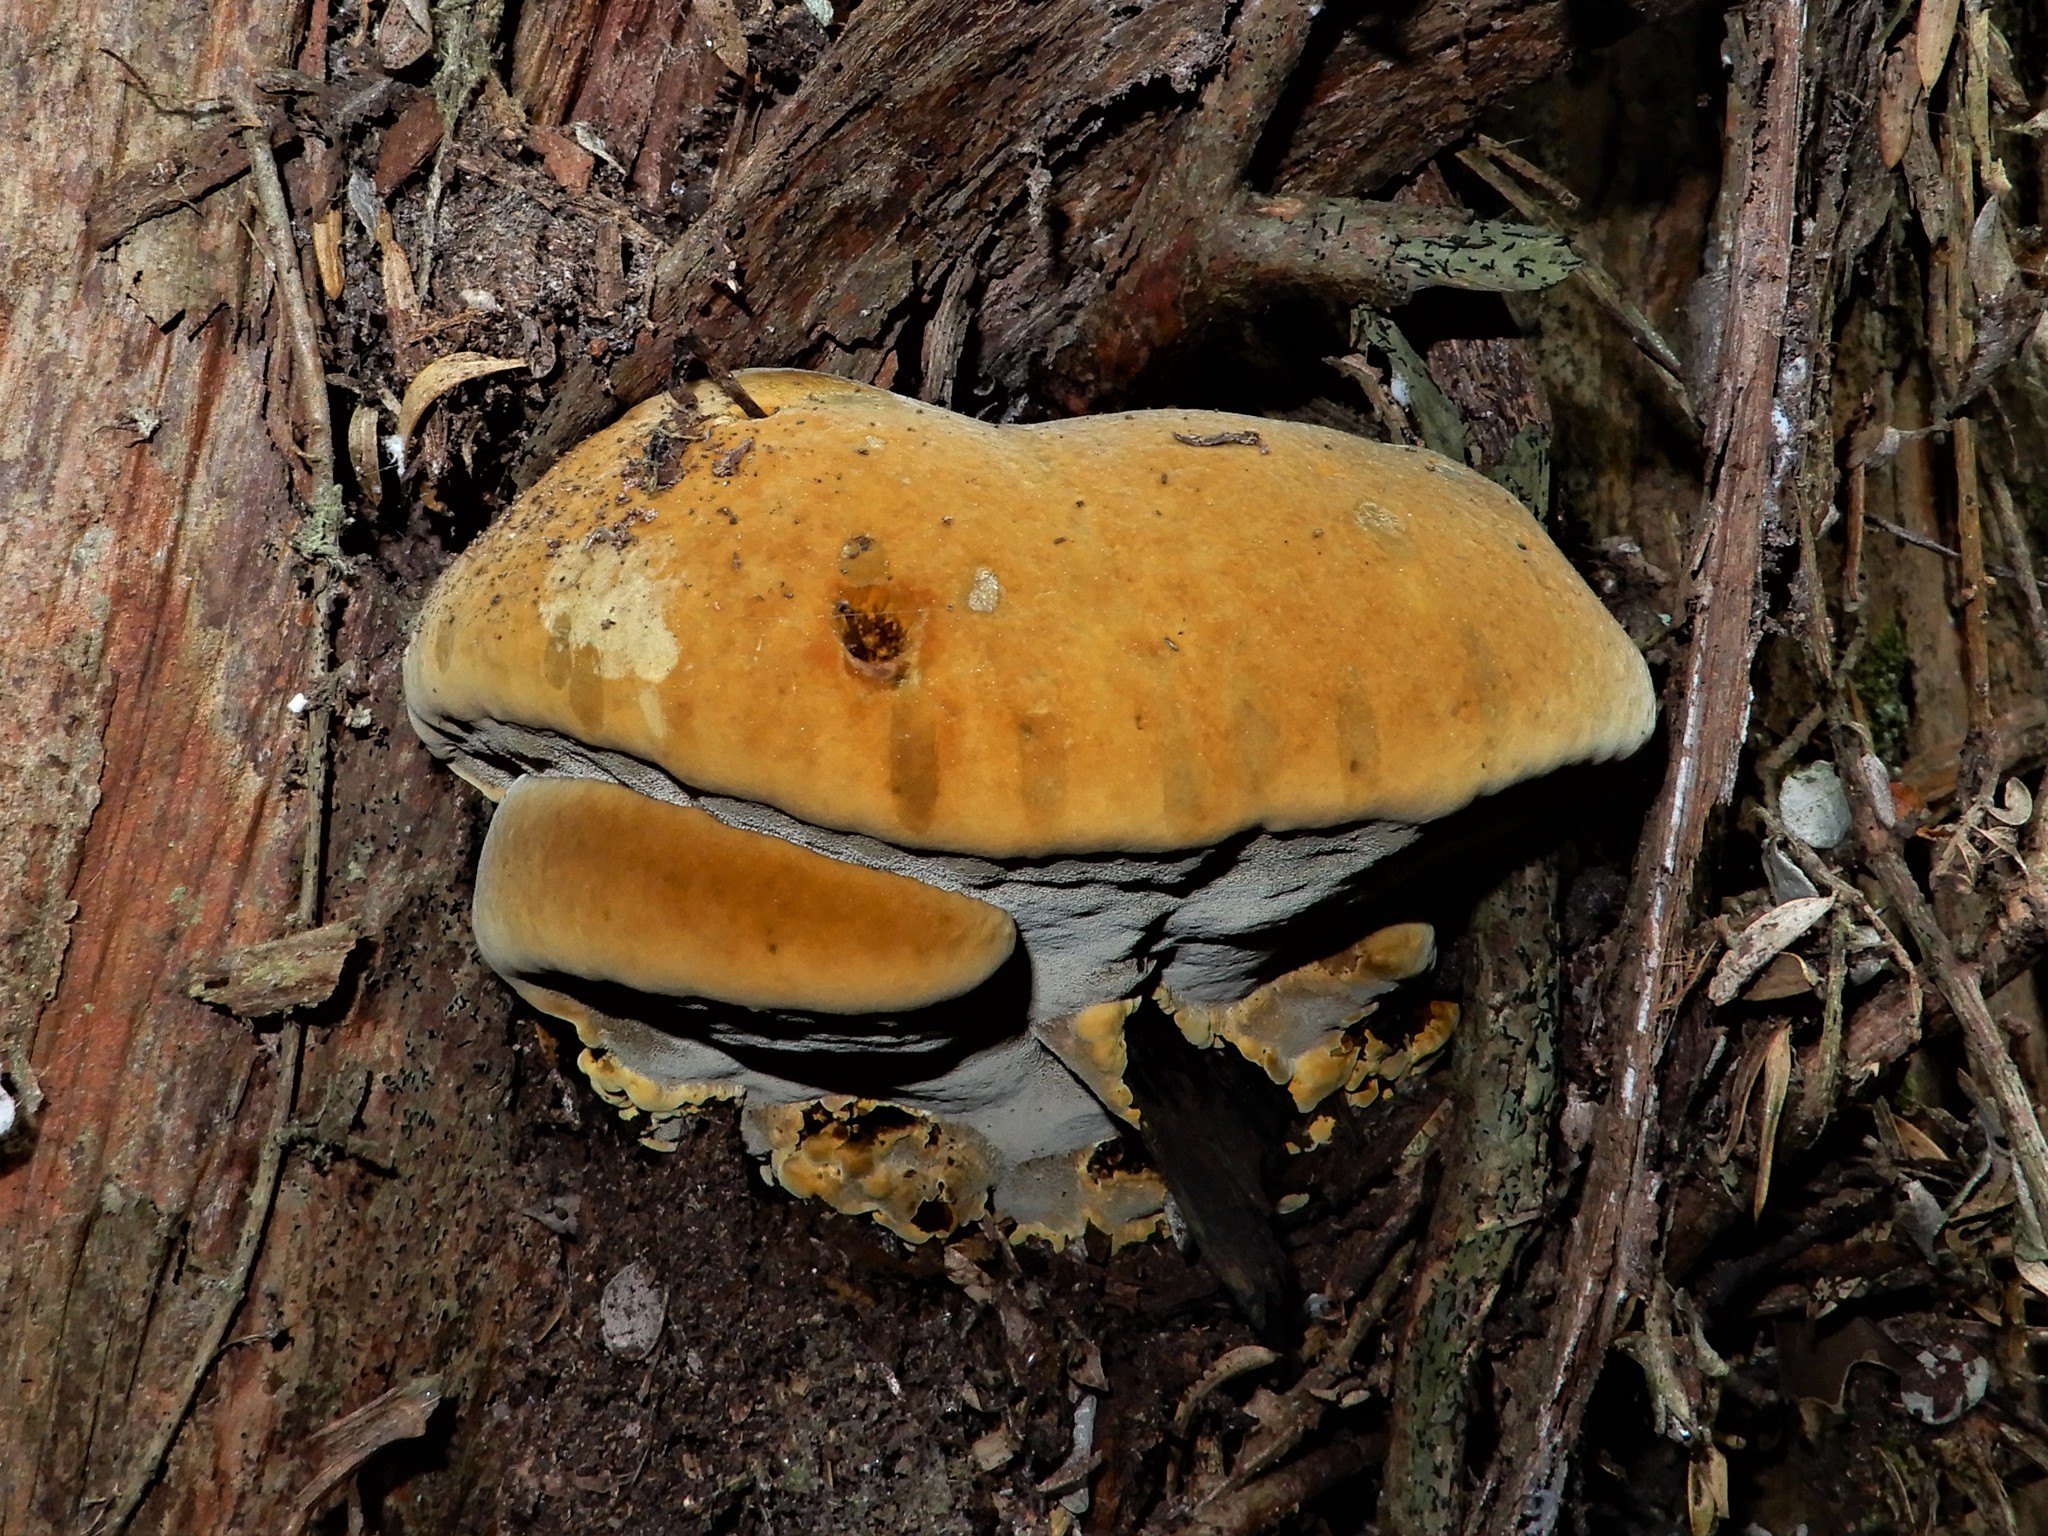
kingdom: Fungi
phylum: Basidiomycota
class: Agaricomycetes
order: Hymenochaetales
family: Hymenochaetaceae
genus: Phellinus
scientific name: Phellinus gilvus
